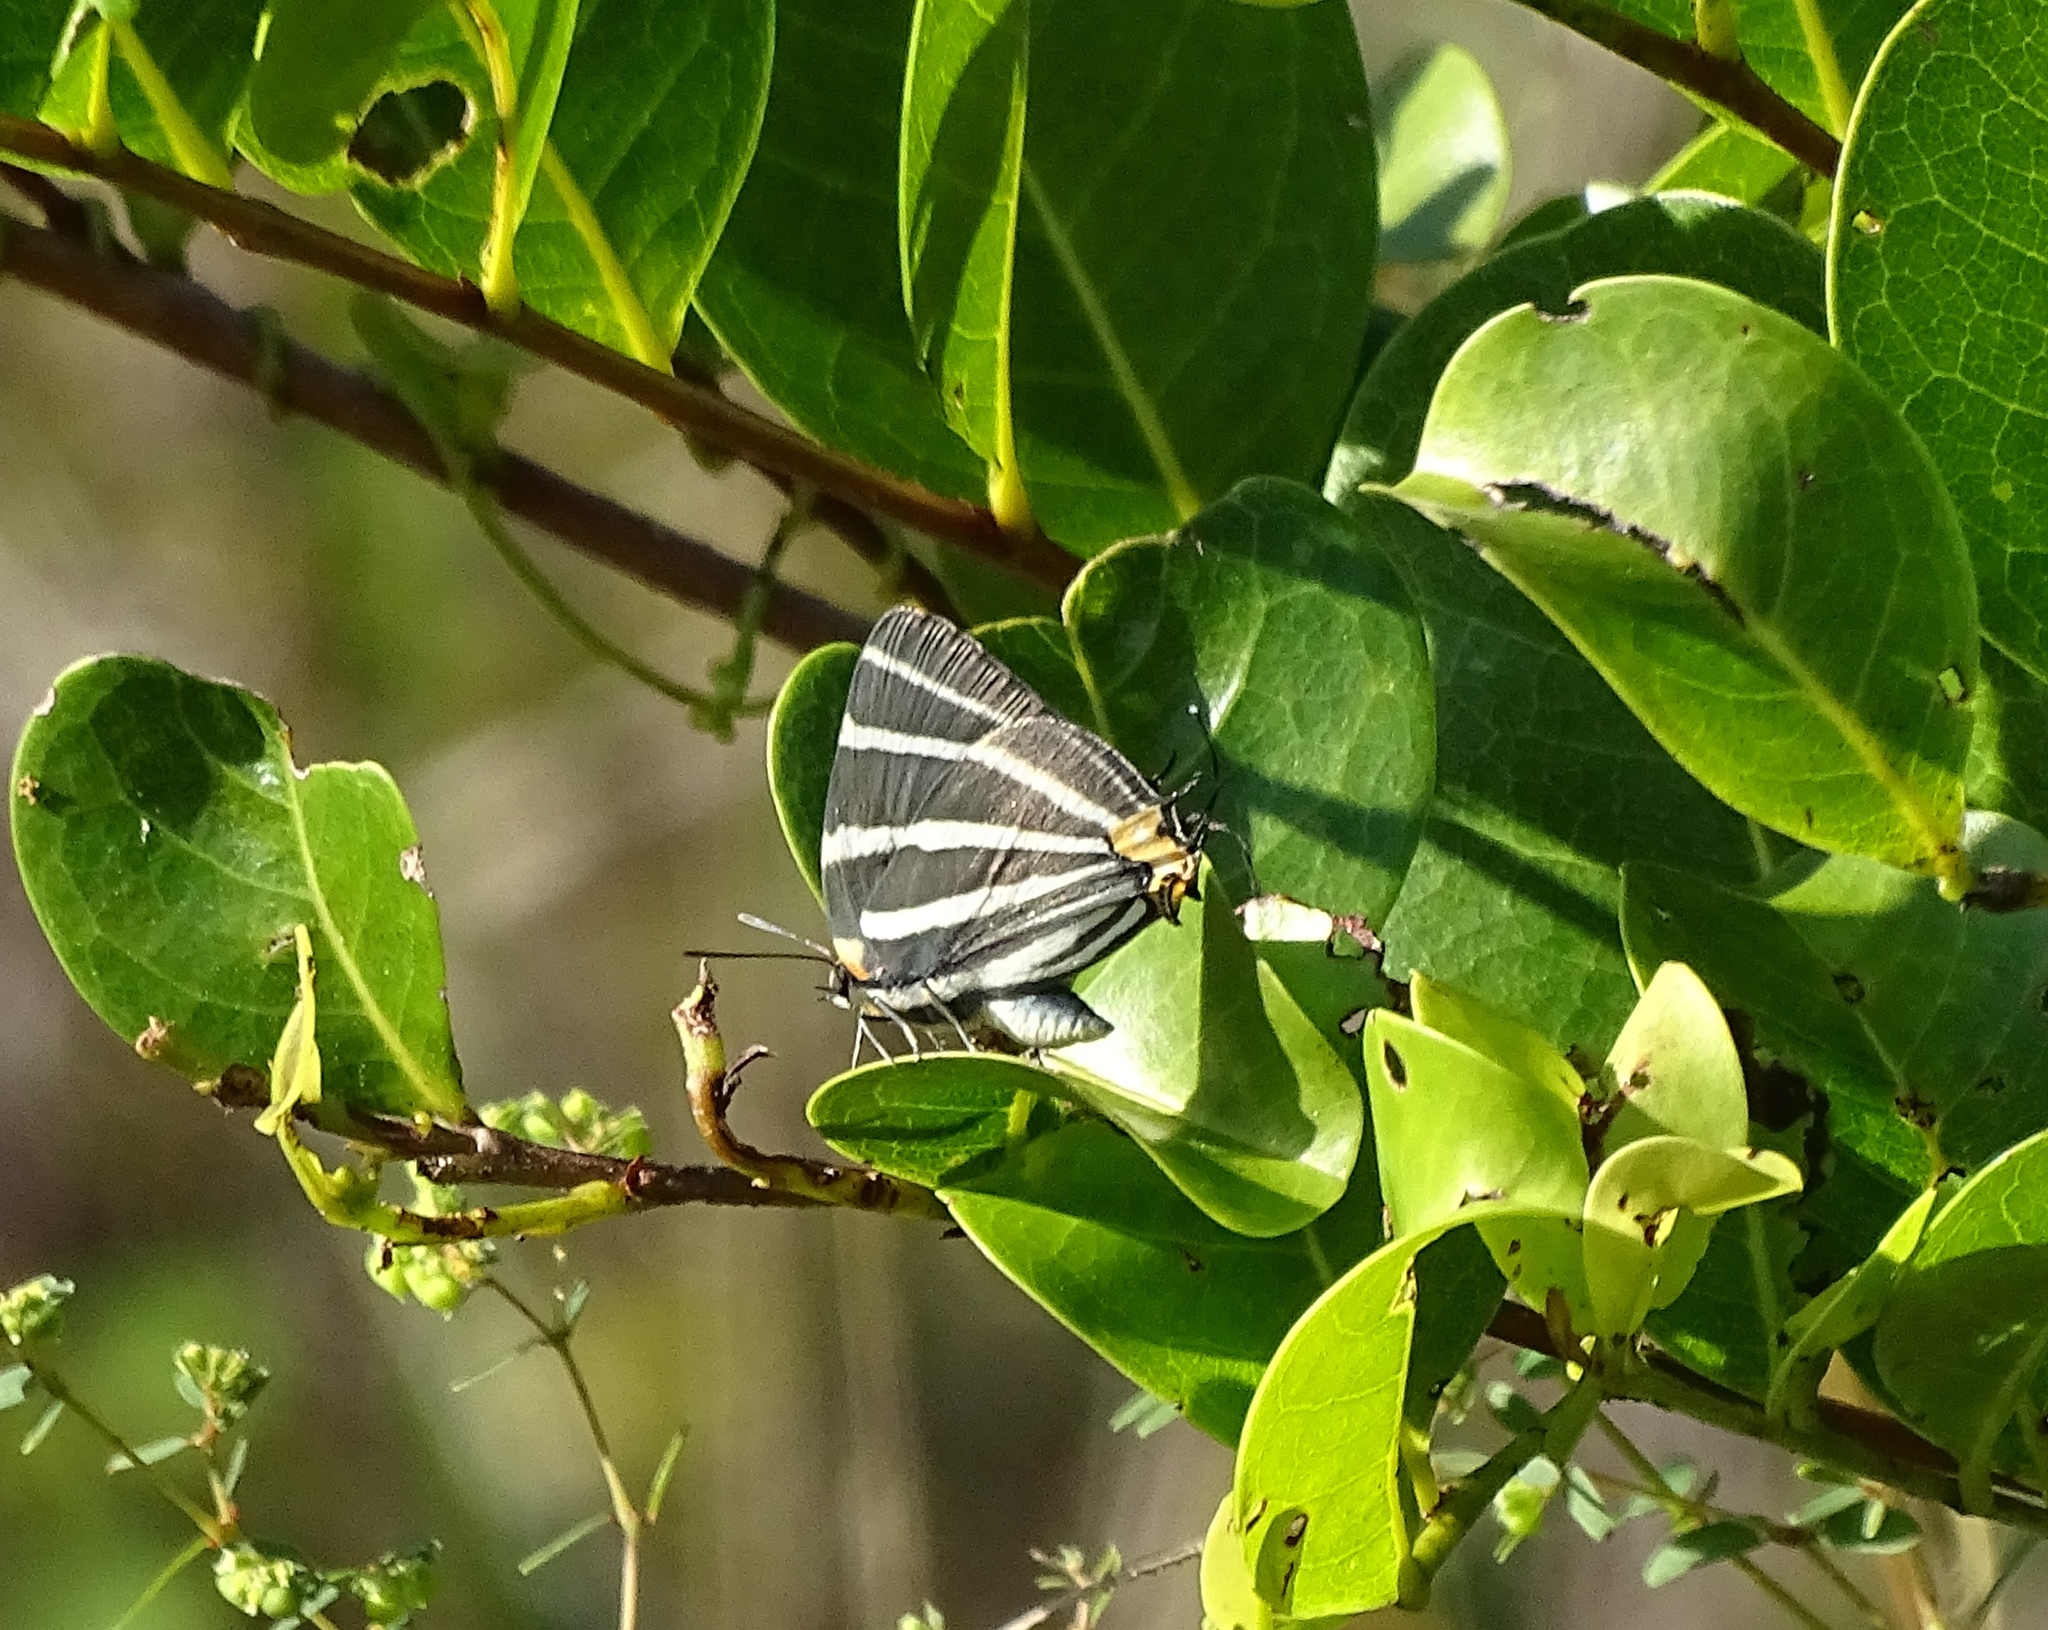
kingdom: Animalia
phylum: Arthropoda
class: Insecta
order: Lepidoptera
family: Lycaenidae
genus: Thecla
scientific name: Thecla bathildis
